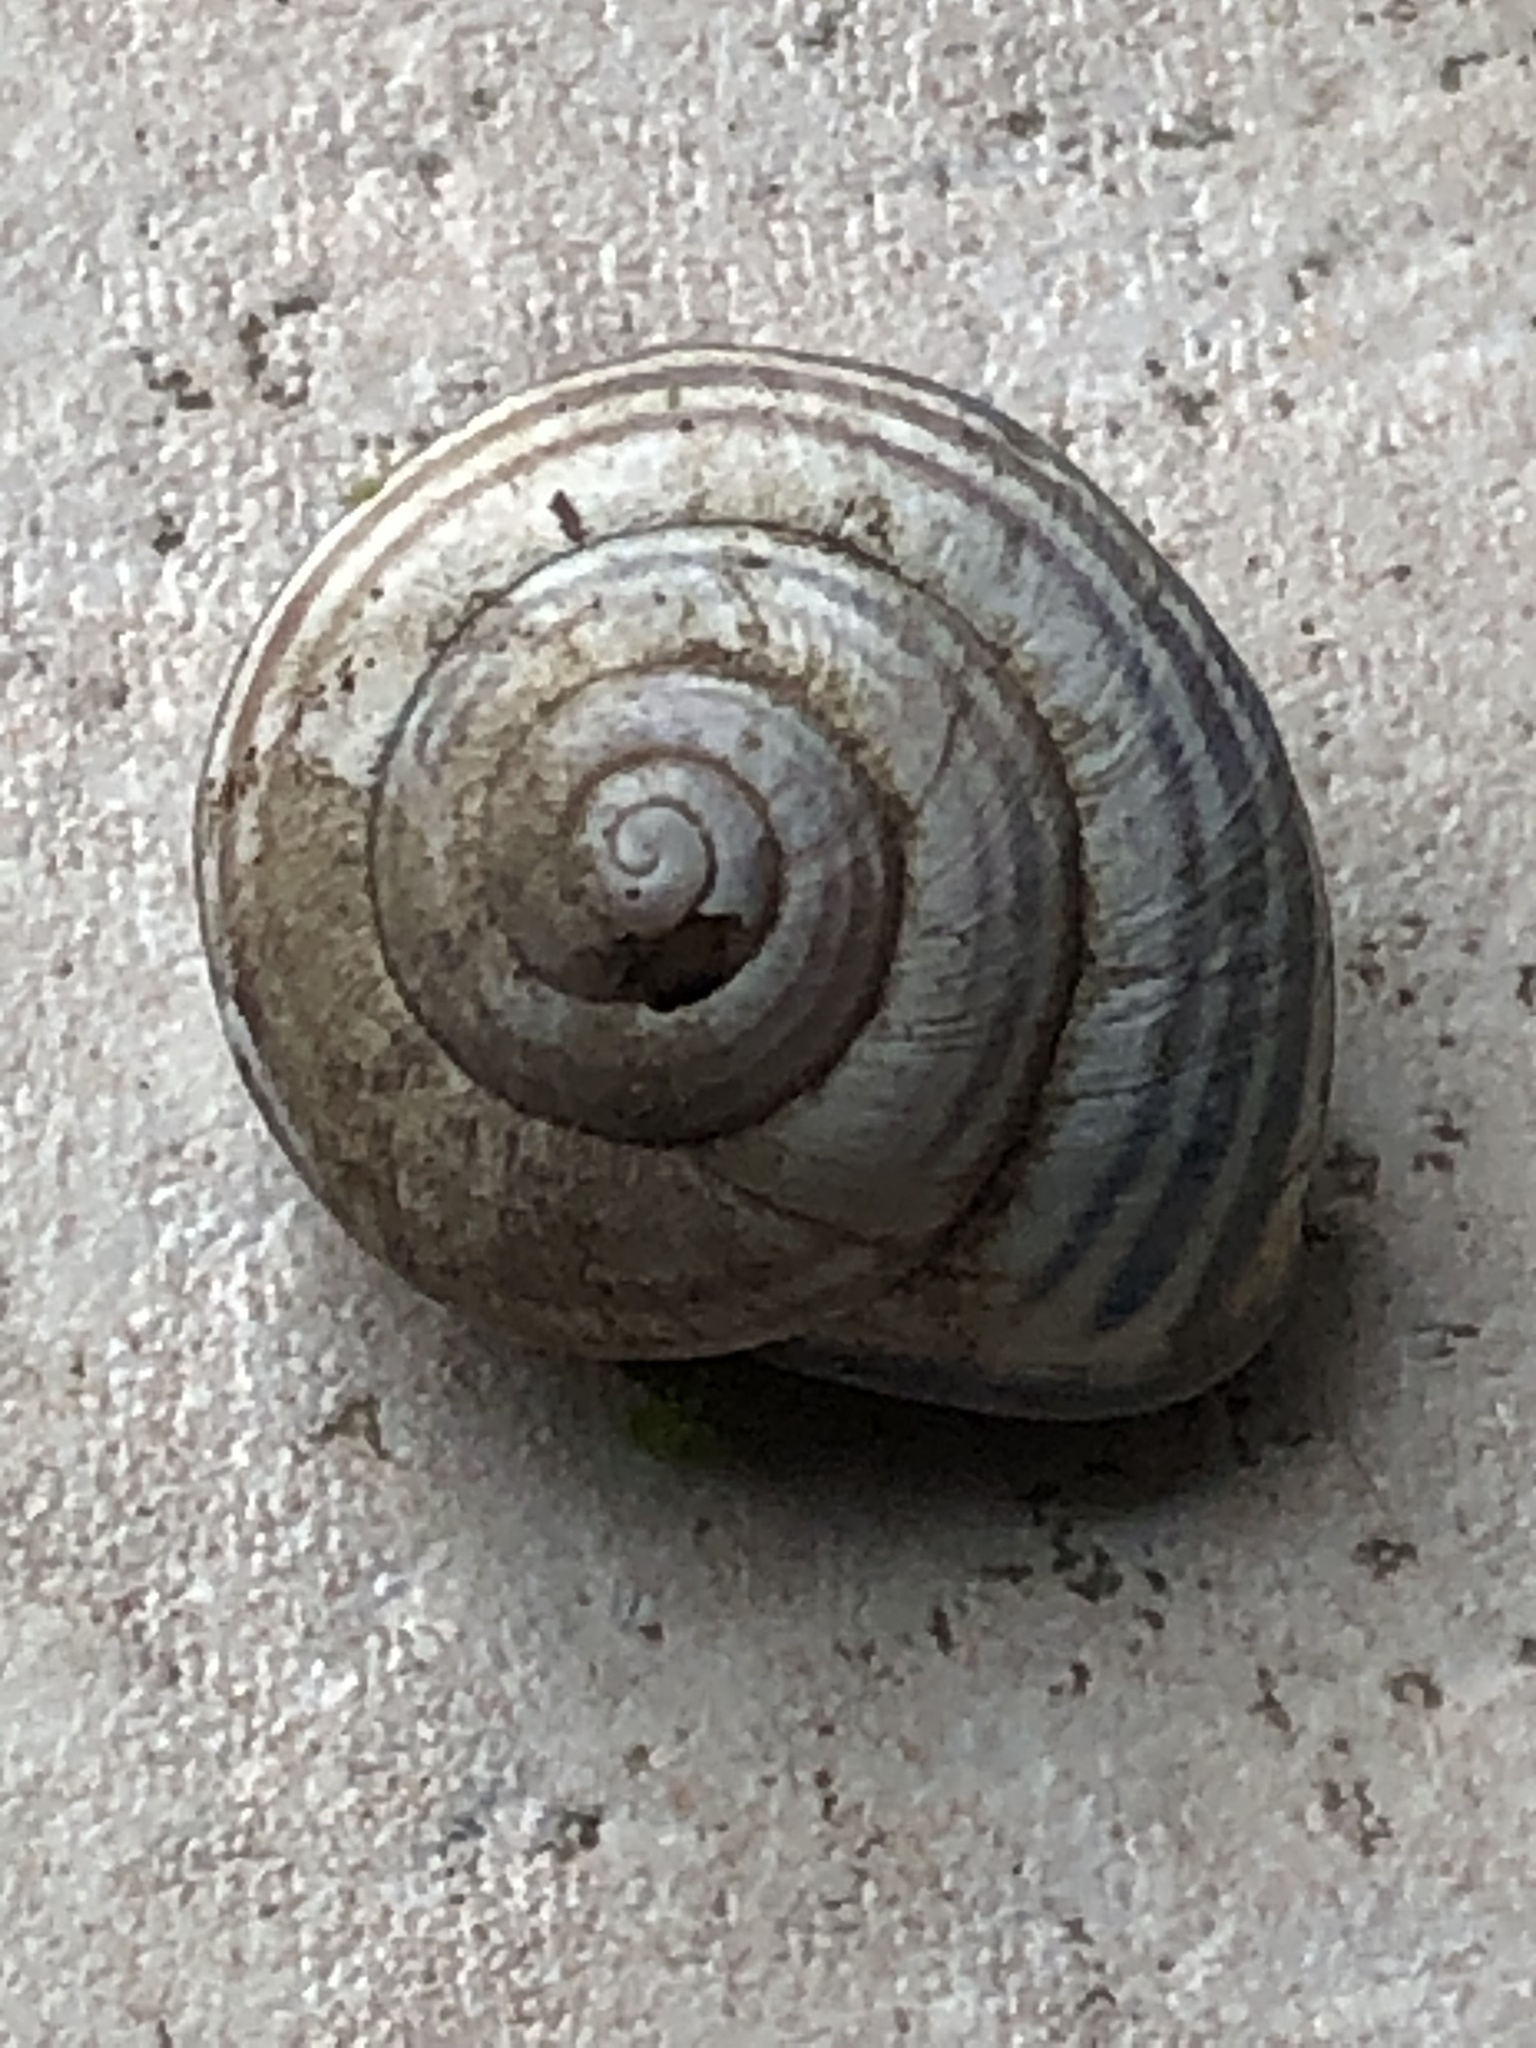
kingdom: Animalia
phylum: Mollusca
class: Gastropoda
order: Stylommatophora
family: Helicidae
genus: Cepaea
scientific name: Cepaea nemoralis
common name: Grovesnail
